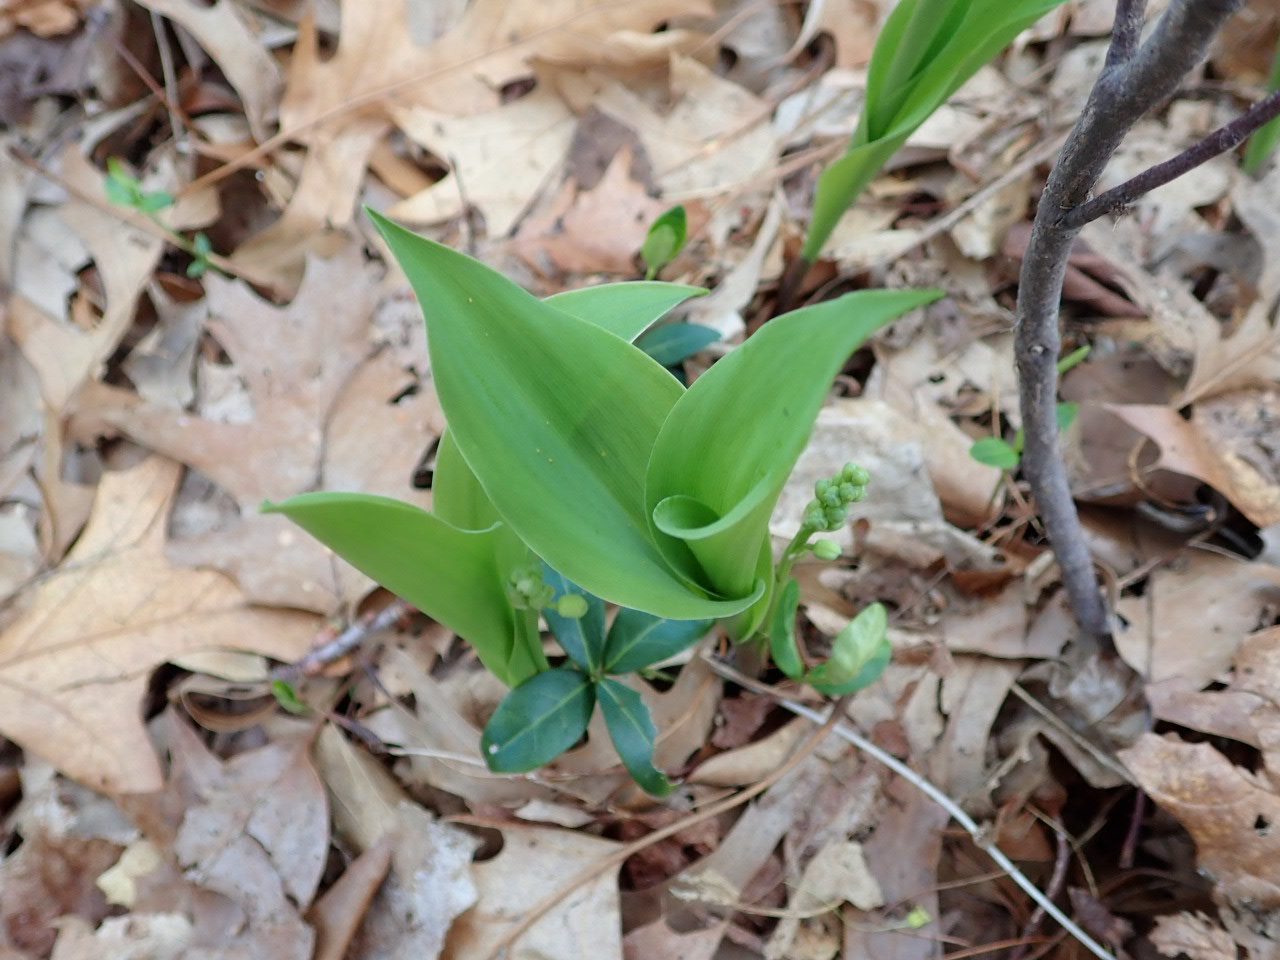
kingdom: Plantae
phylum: Tracheophyta
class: Liliopsida
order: Asparagales
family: Asparagaceae
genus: Convallaria
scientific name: Convallaria majalis
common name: Lily-of-the-valley
